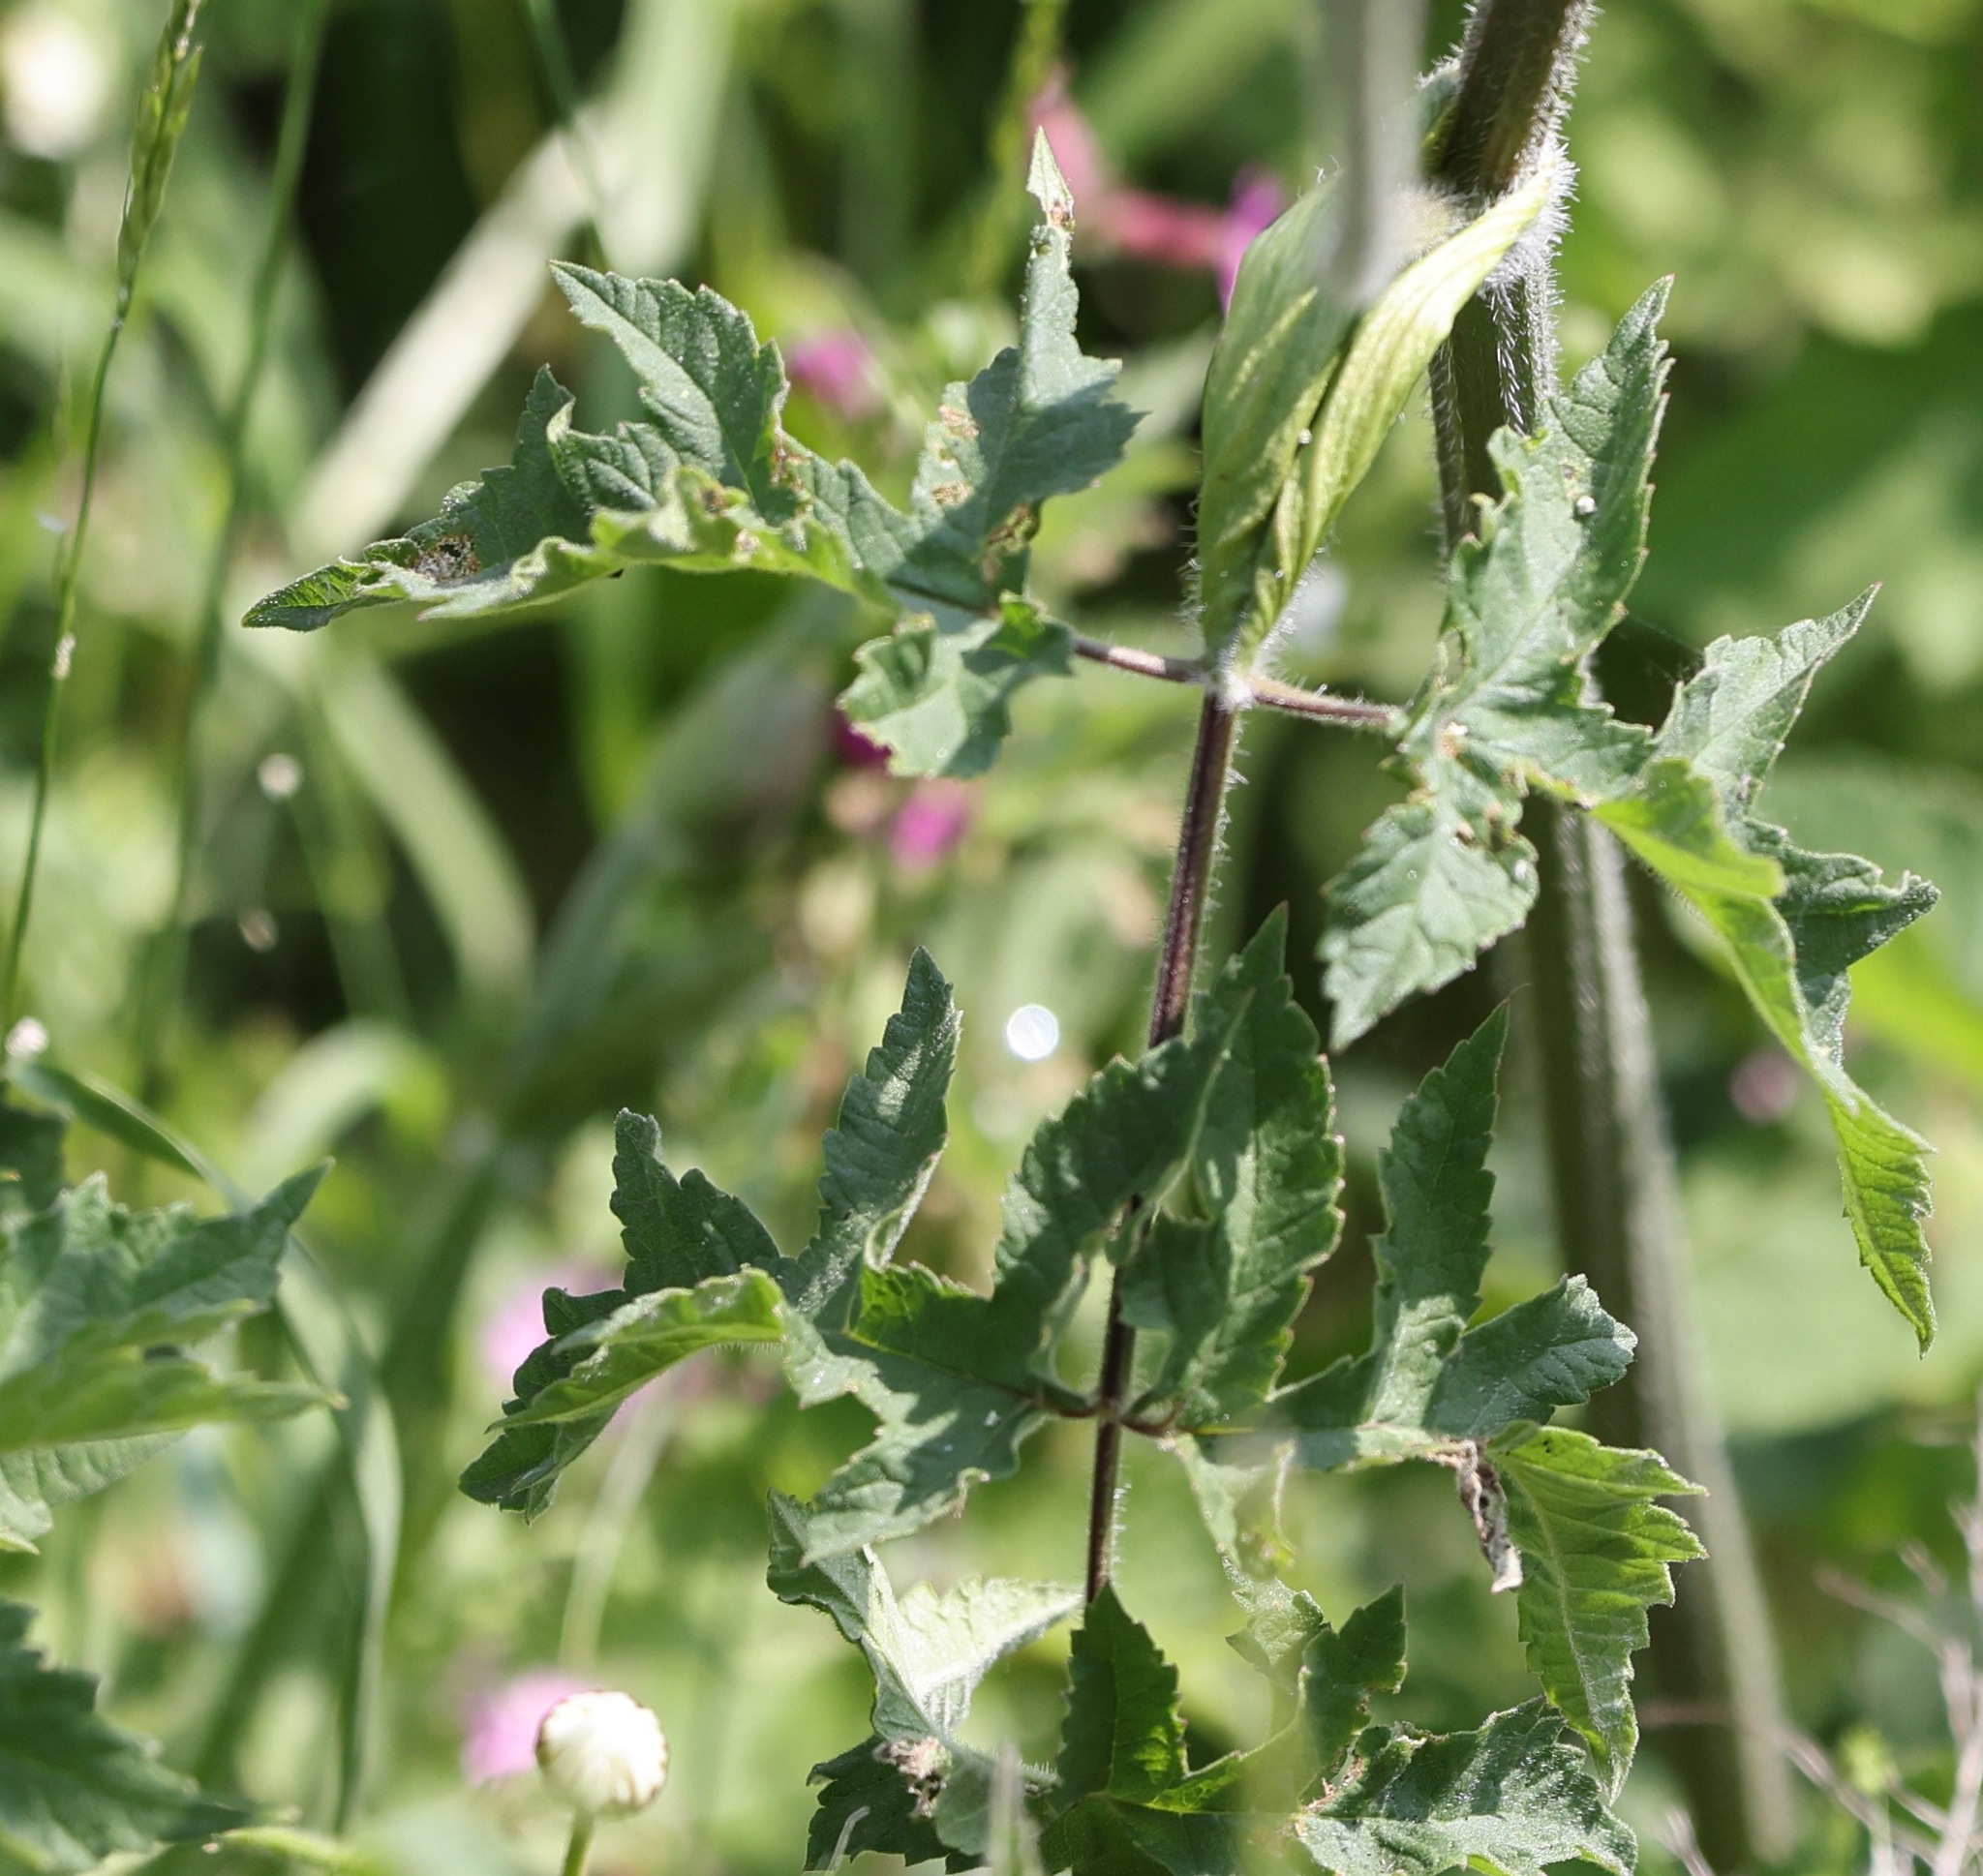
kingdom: Plantae
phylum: Tracheophyta
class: Magnoliopsida
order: Apiales
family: Apiaceae
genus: Heracleum
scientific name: Heracleum sphondylium
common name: Hogweed
